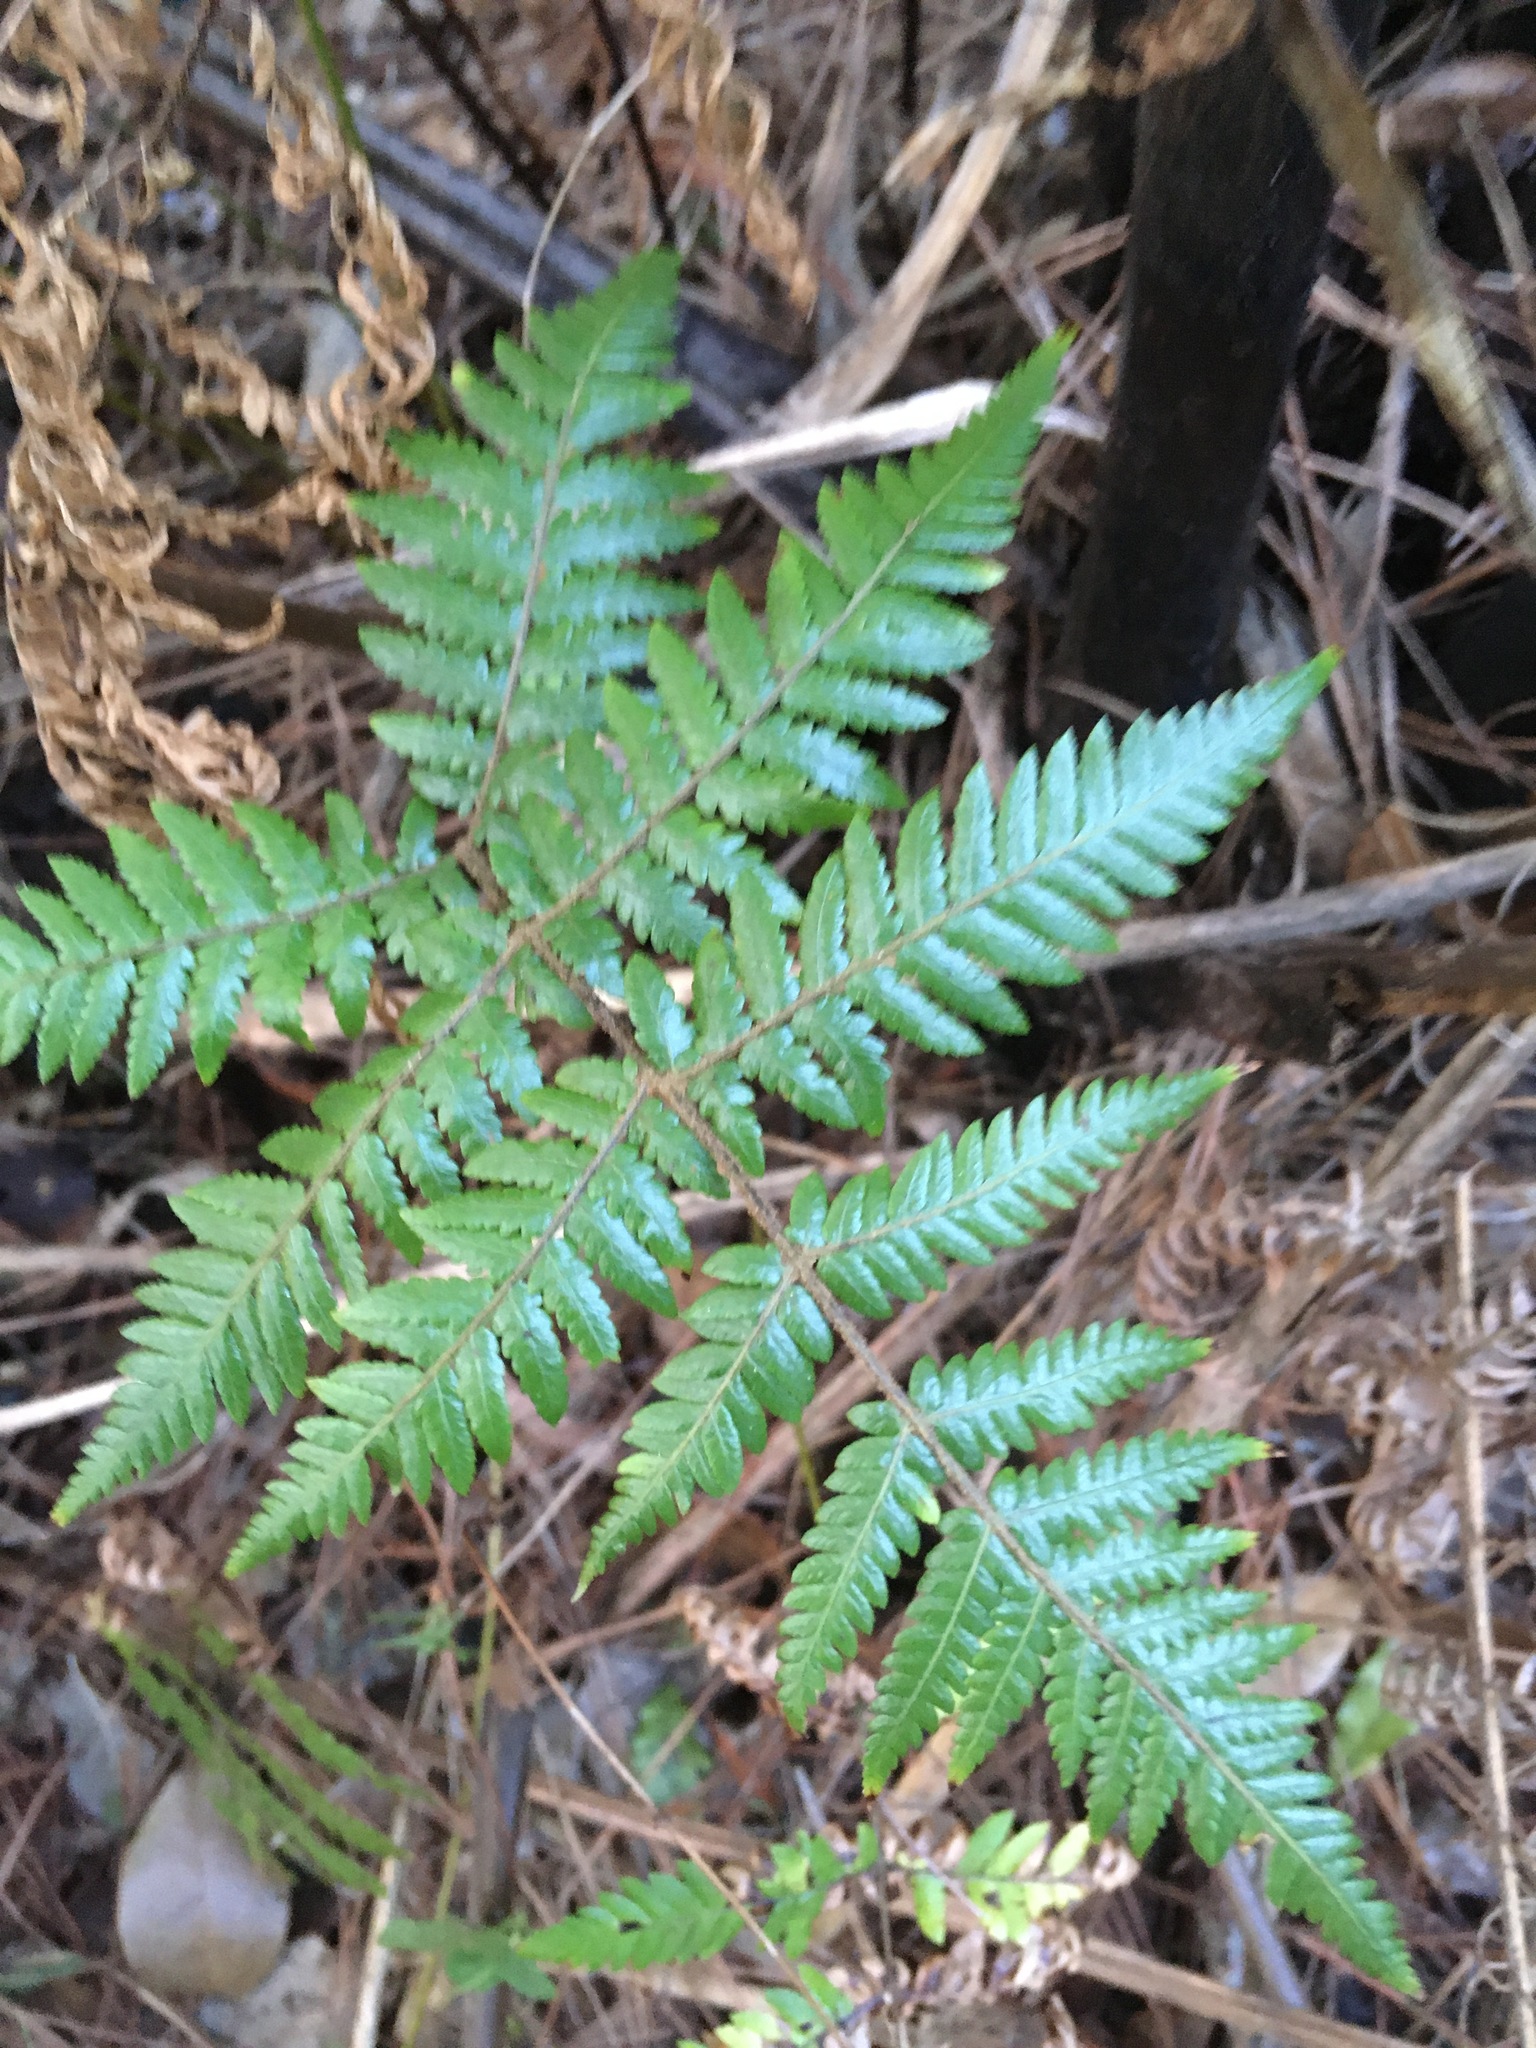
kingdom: Plantae
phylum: Tracheophyta
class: Polypodiopsida
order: Cyatheales
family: Cyatheaceae
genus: Sphaeropteris
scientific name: Sphaeropteris medullaris
